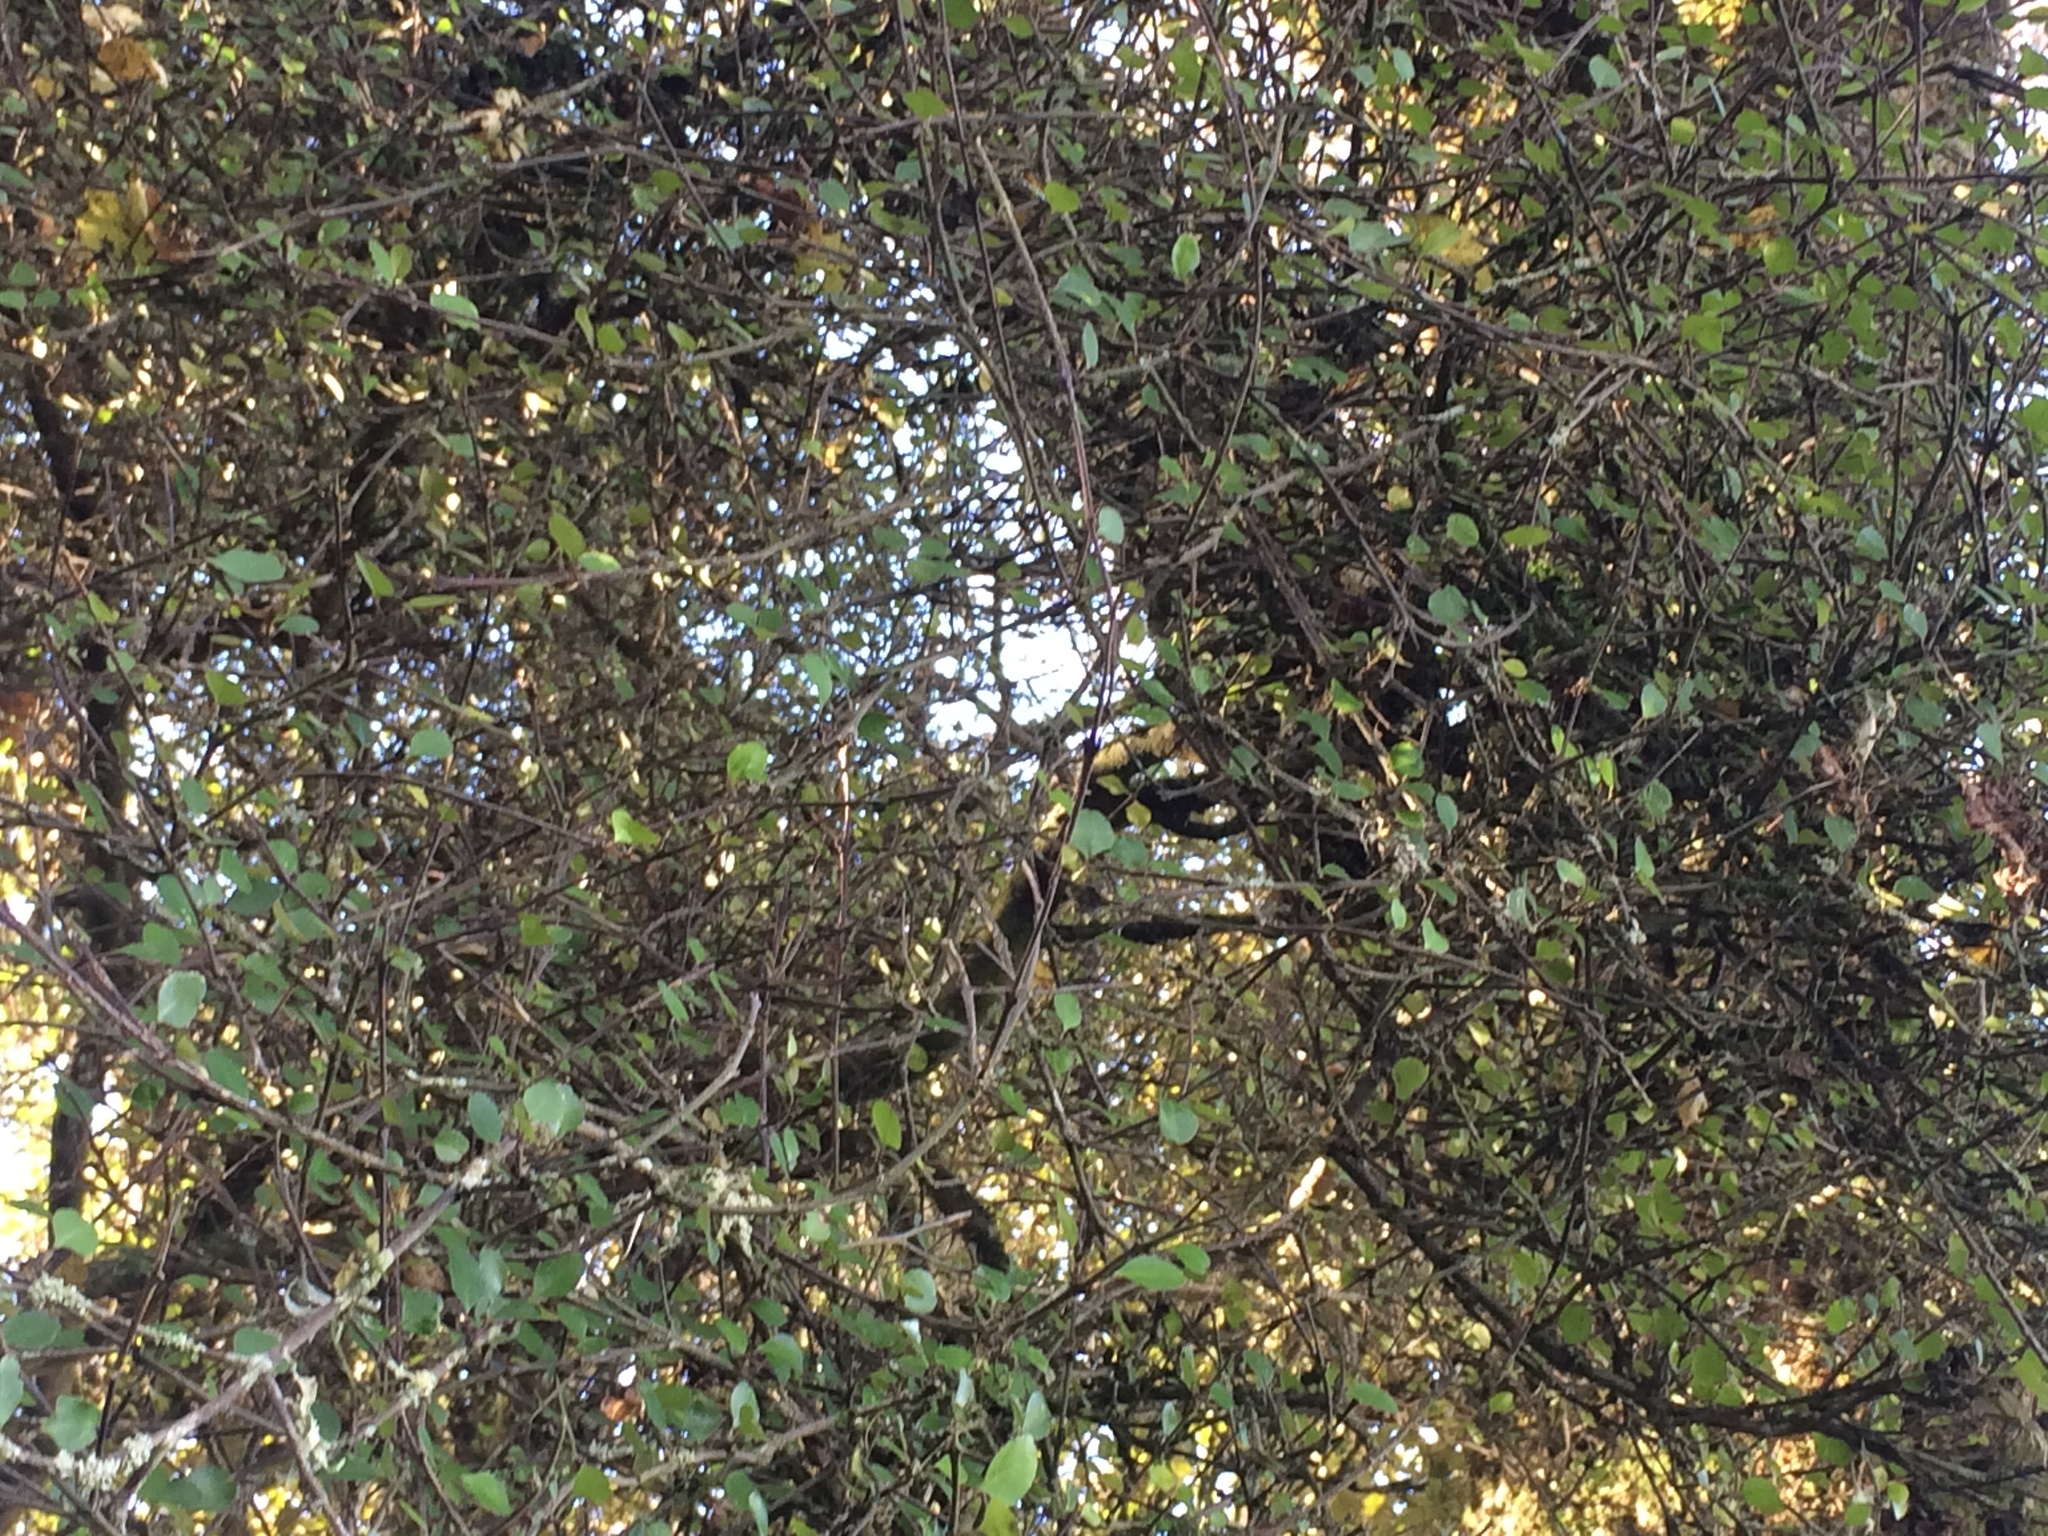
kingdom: Plantae
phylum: Tracheophyta
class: Magnoliopsida
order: Sapindales
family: Rutaceae
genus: Melicope
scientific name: Melicope simplex
